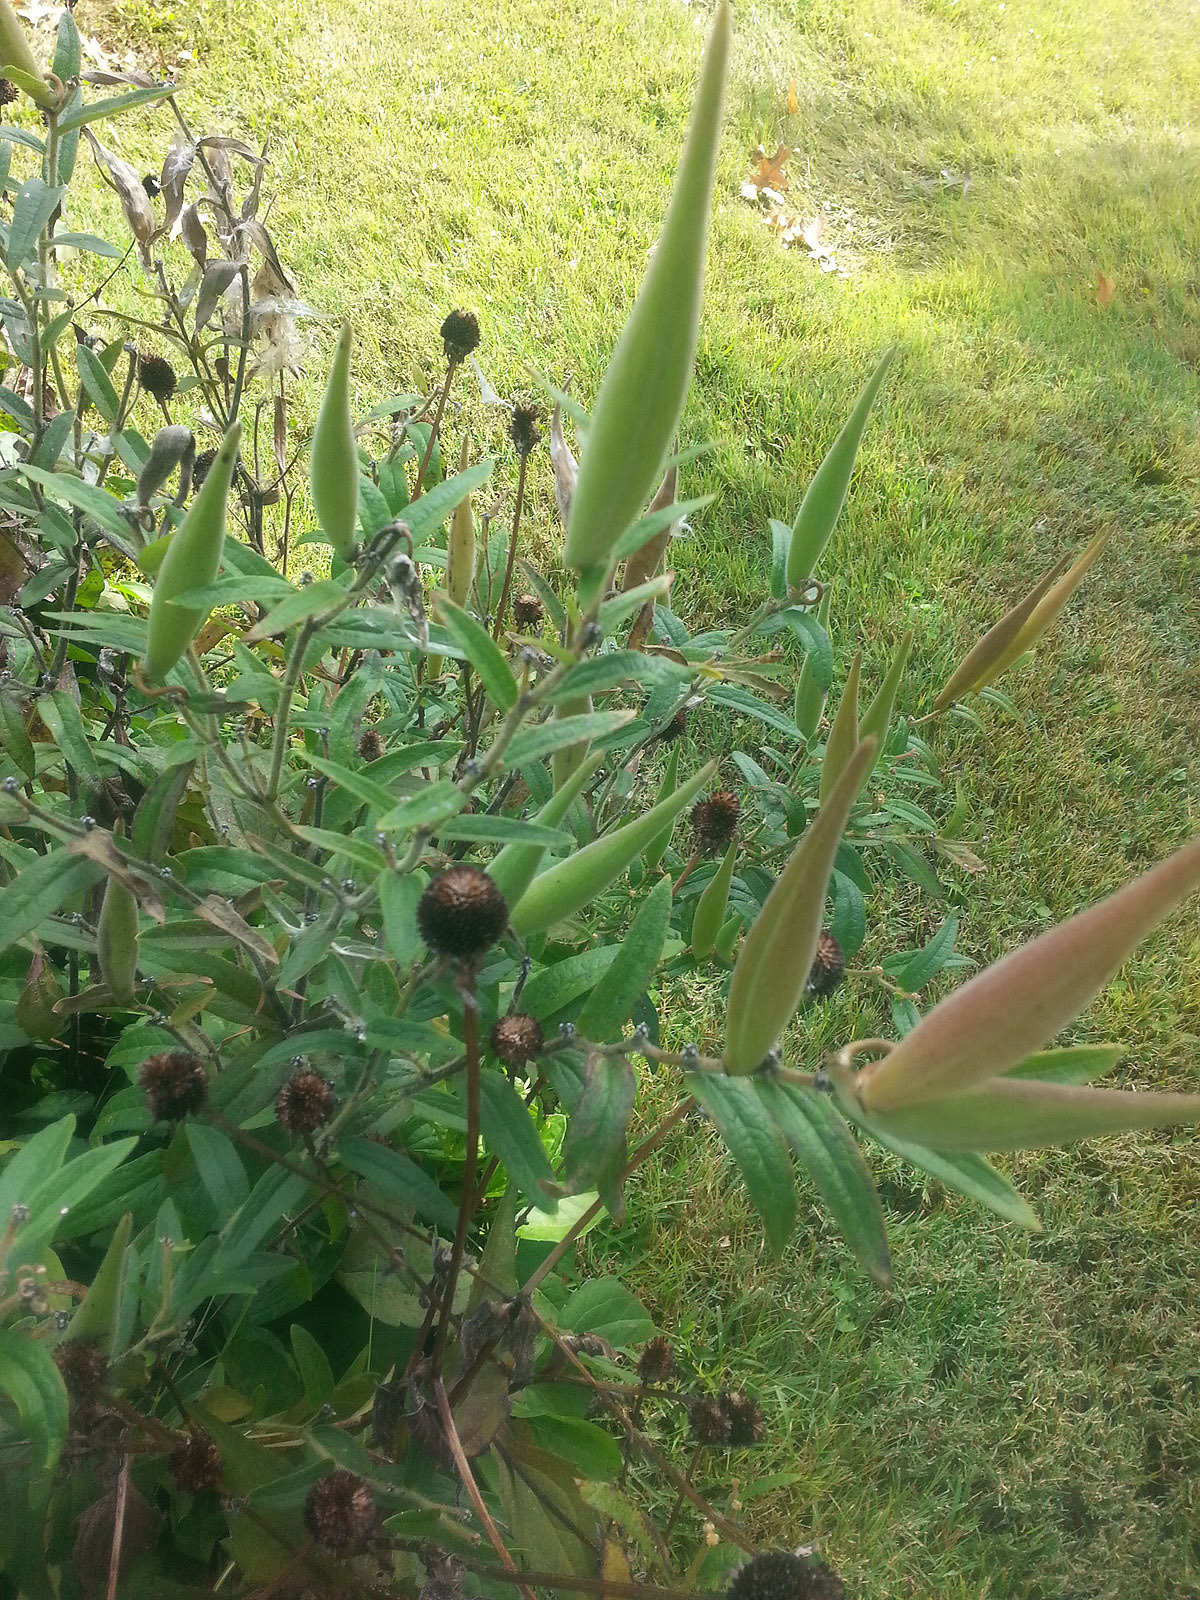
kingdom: Plantae
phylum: Tracheophyta
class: Magnoliopsida
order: Gentianales
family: Apocynaceae
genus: Asclepias
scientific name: Asclepias tuberosa
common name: Butterfly milkweed
